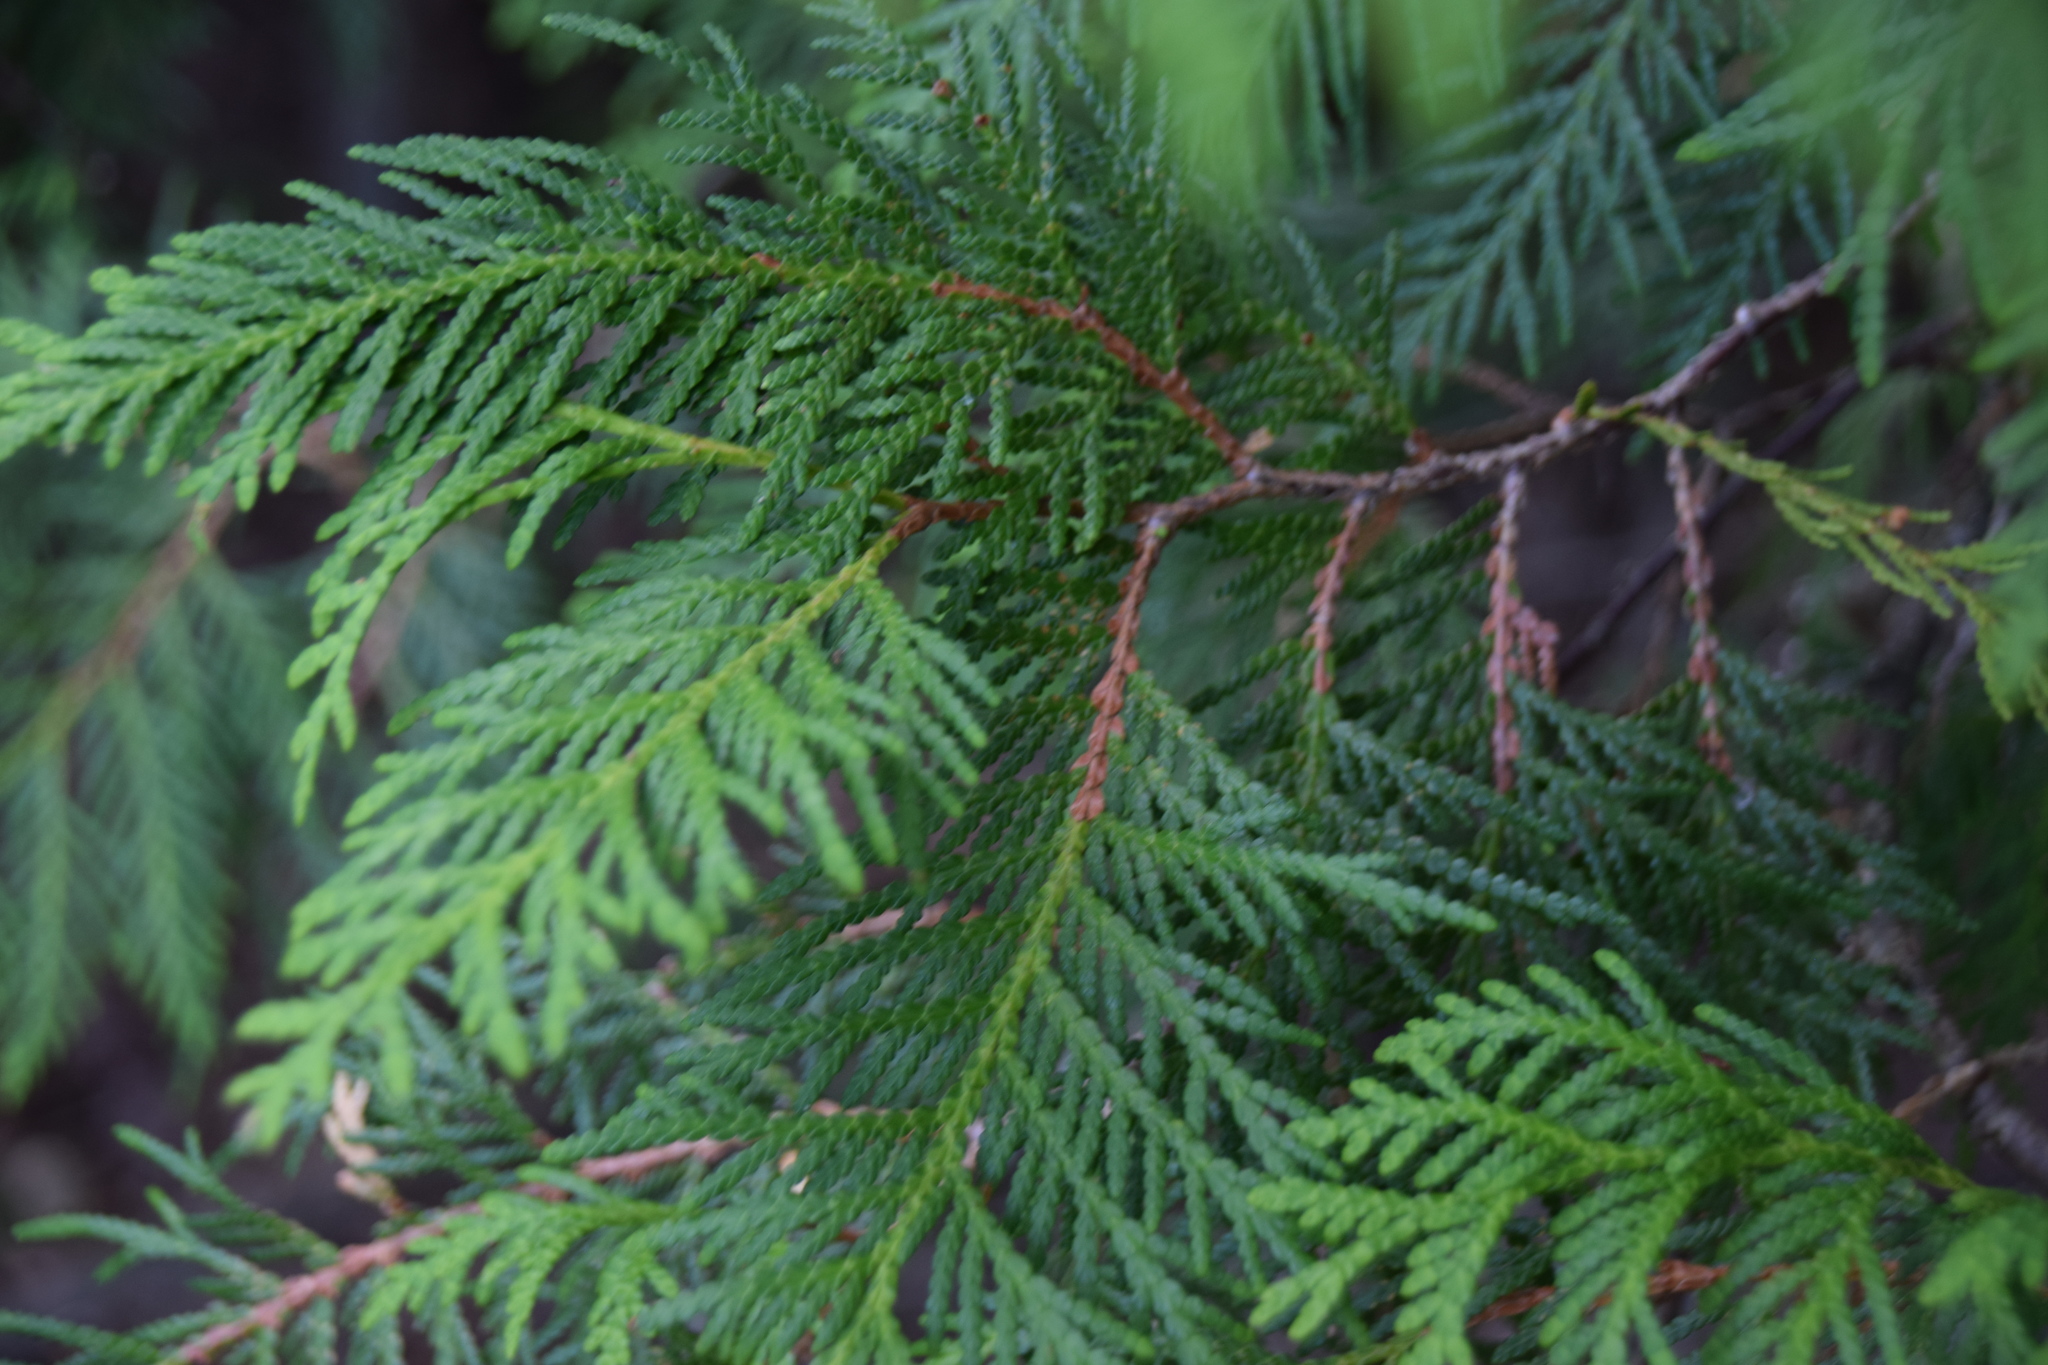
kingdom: Plantae
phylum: Tracheophyta
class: Pinopsida
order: Pinales
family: Cupressaceae
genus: Thuja
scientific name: Thuja occidentalis
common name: Northern white-cedar
